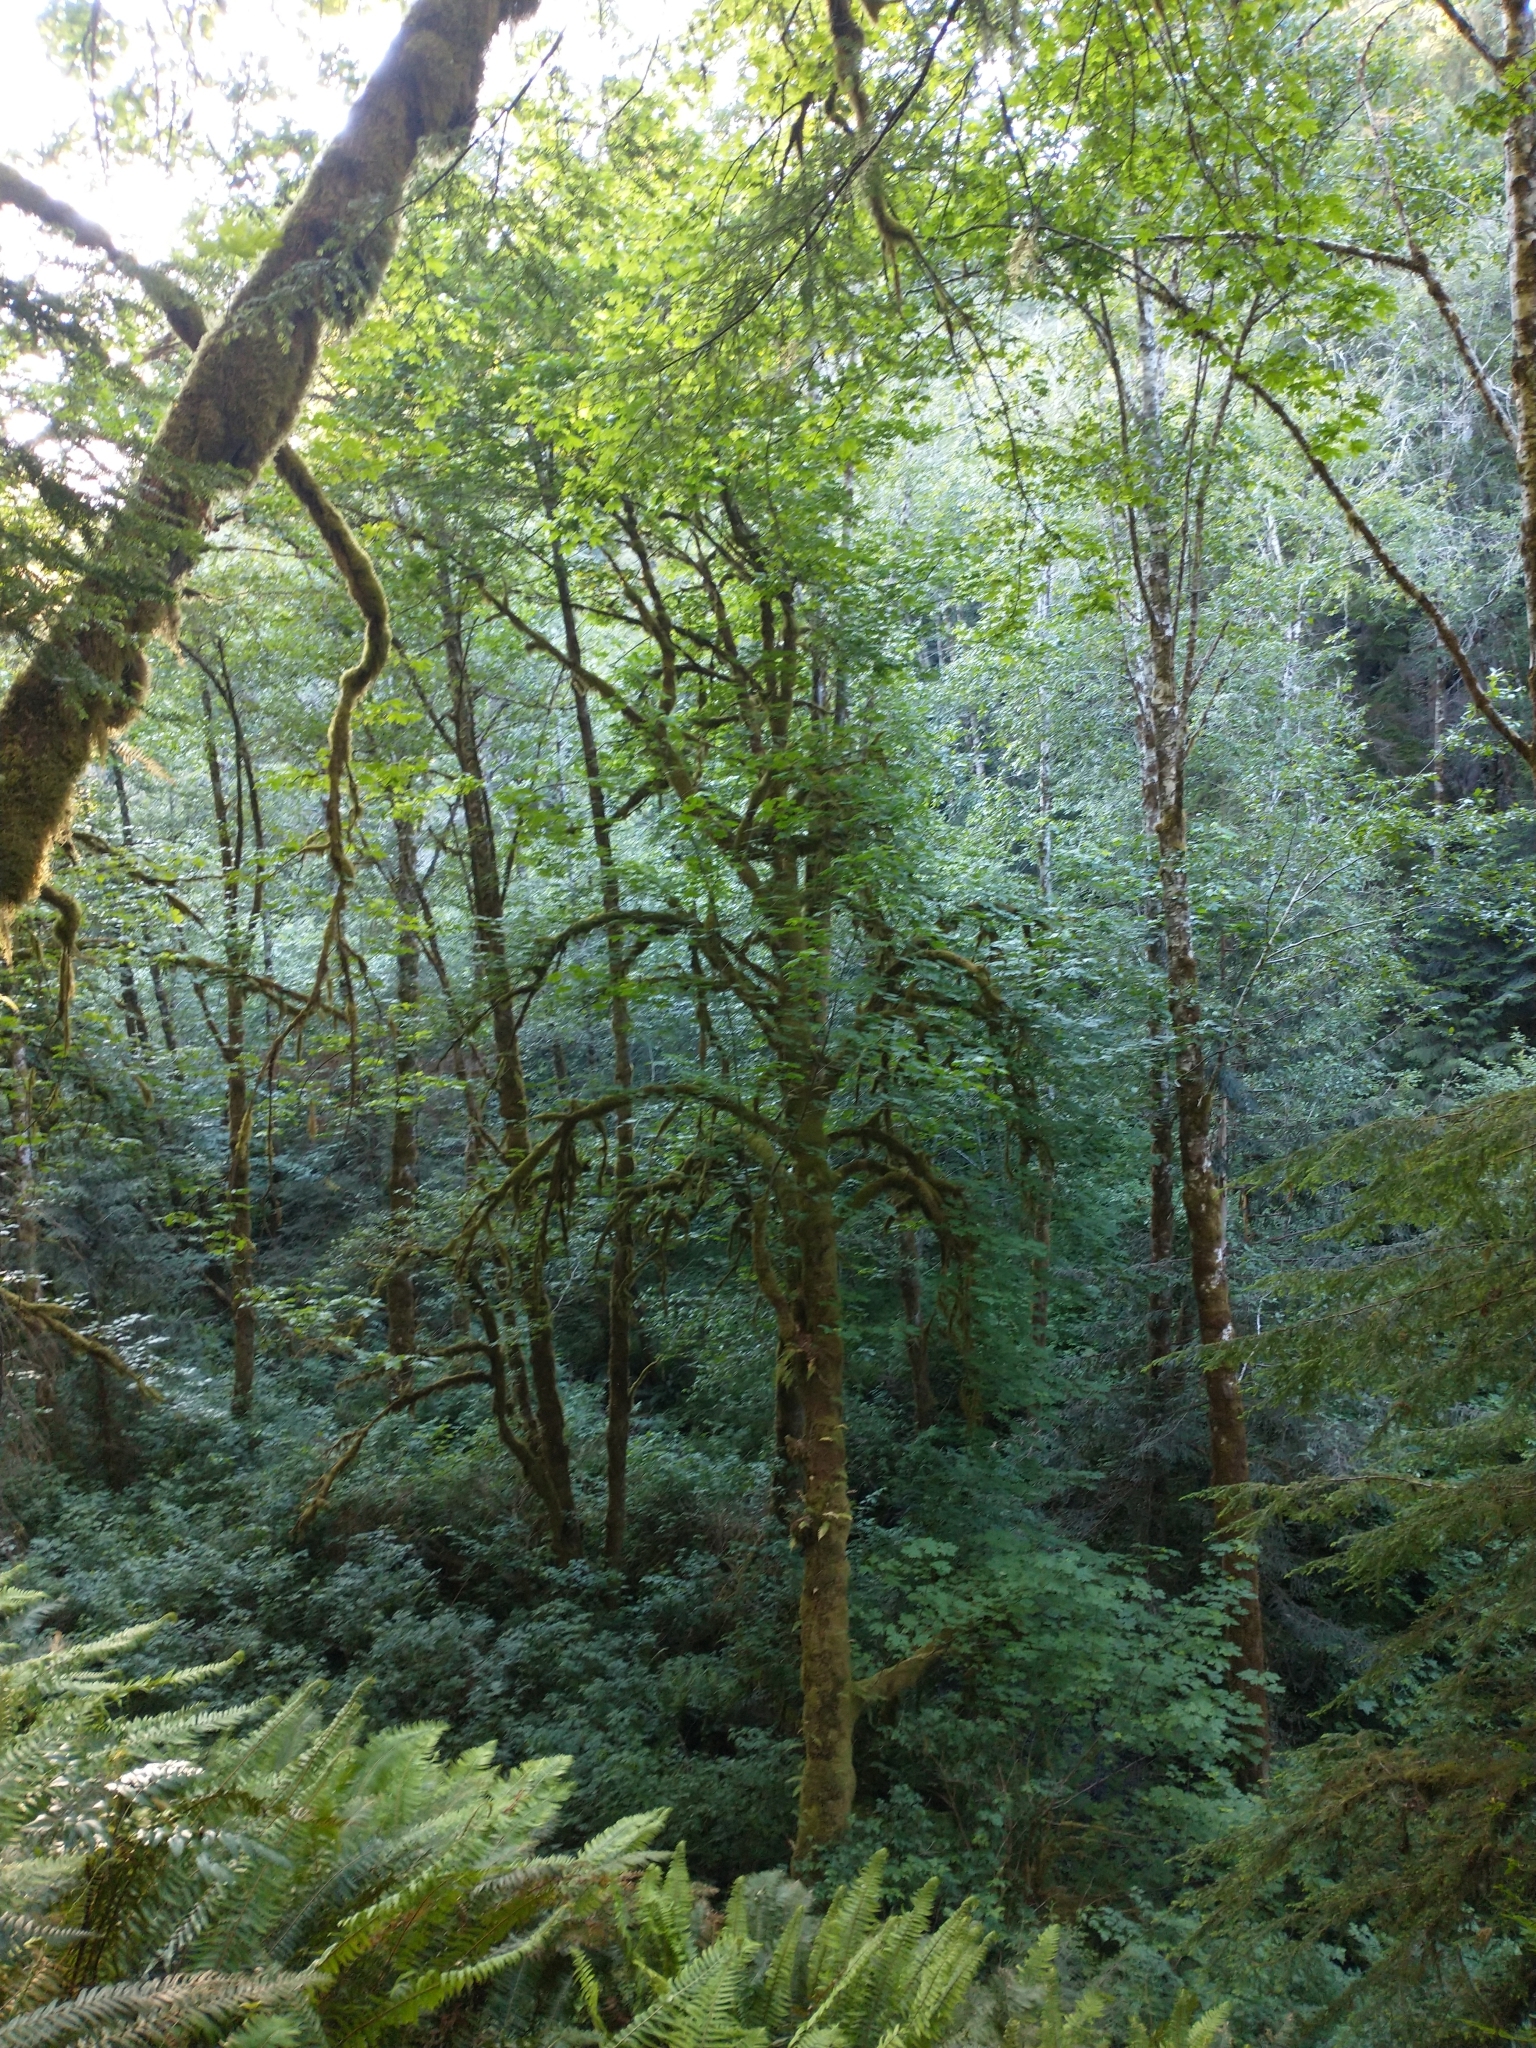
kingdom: Plantae
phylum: Tracheophyta
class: Magnoliopsida
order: Sapindales
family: Sapindaceae
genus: Acer
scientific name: Acer macrophyllum
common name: Oregon maple
